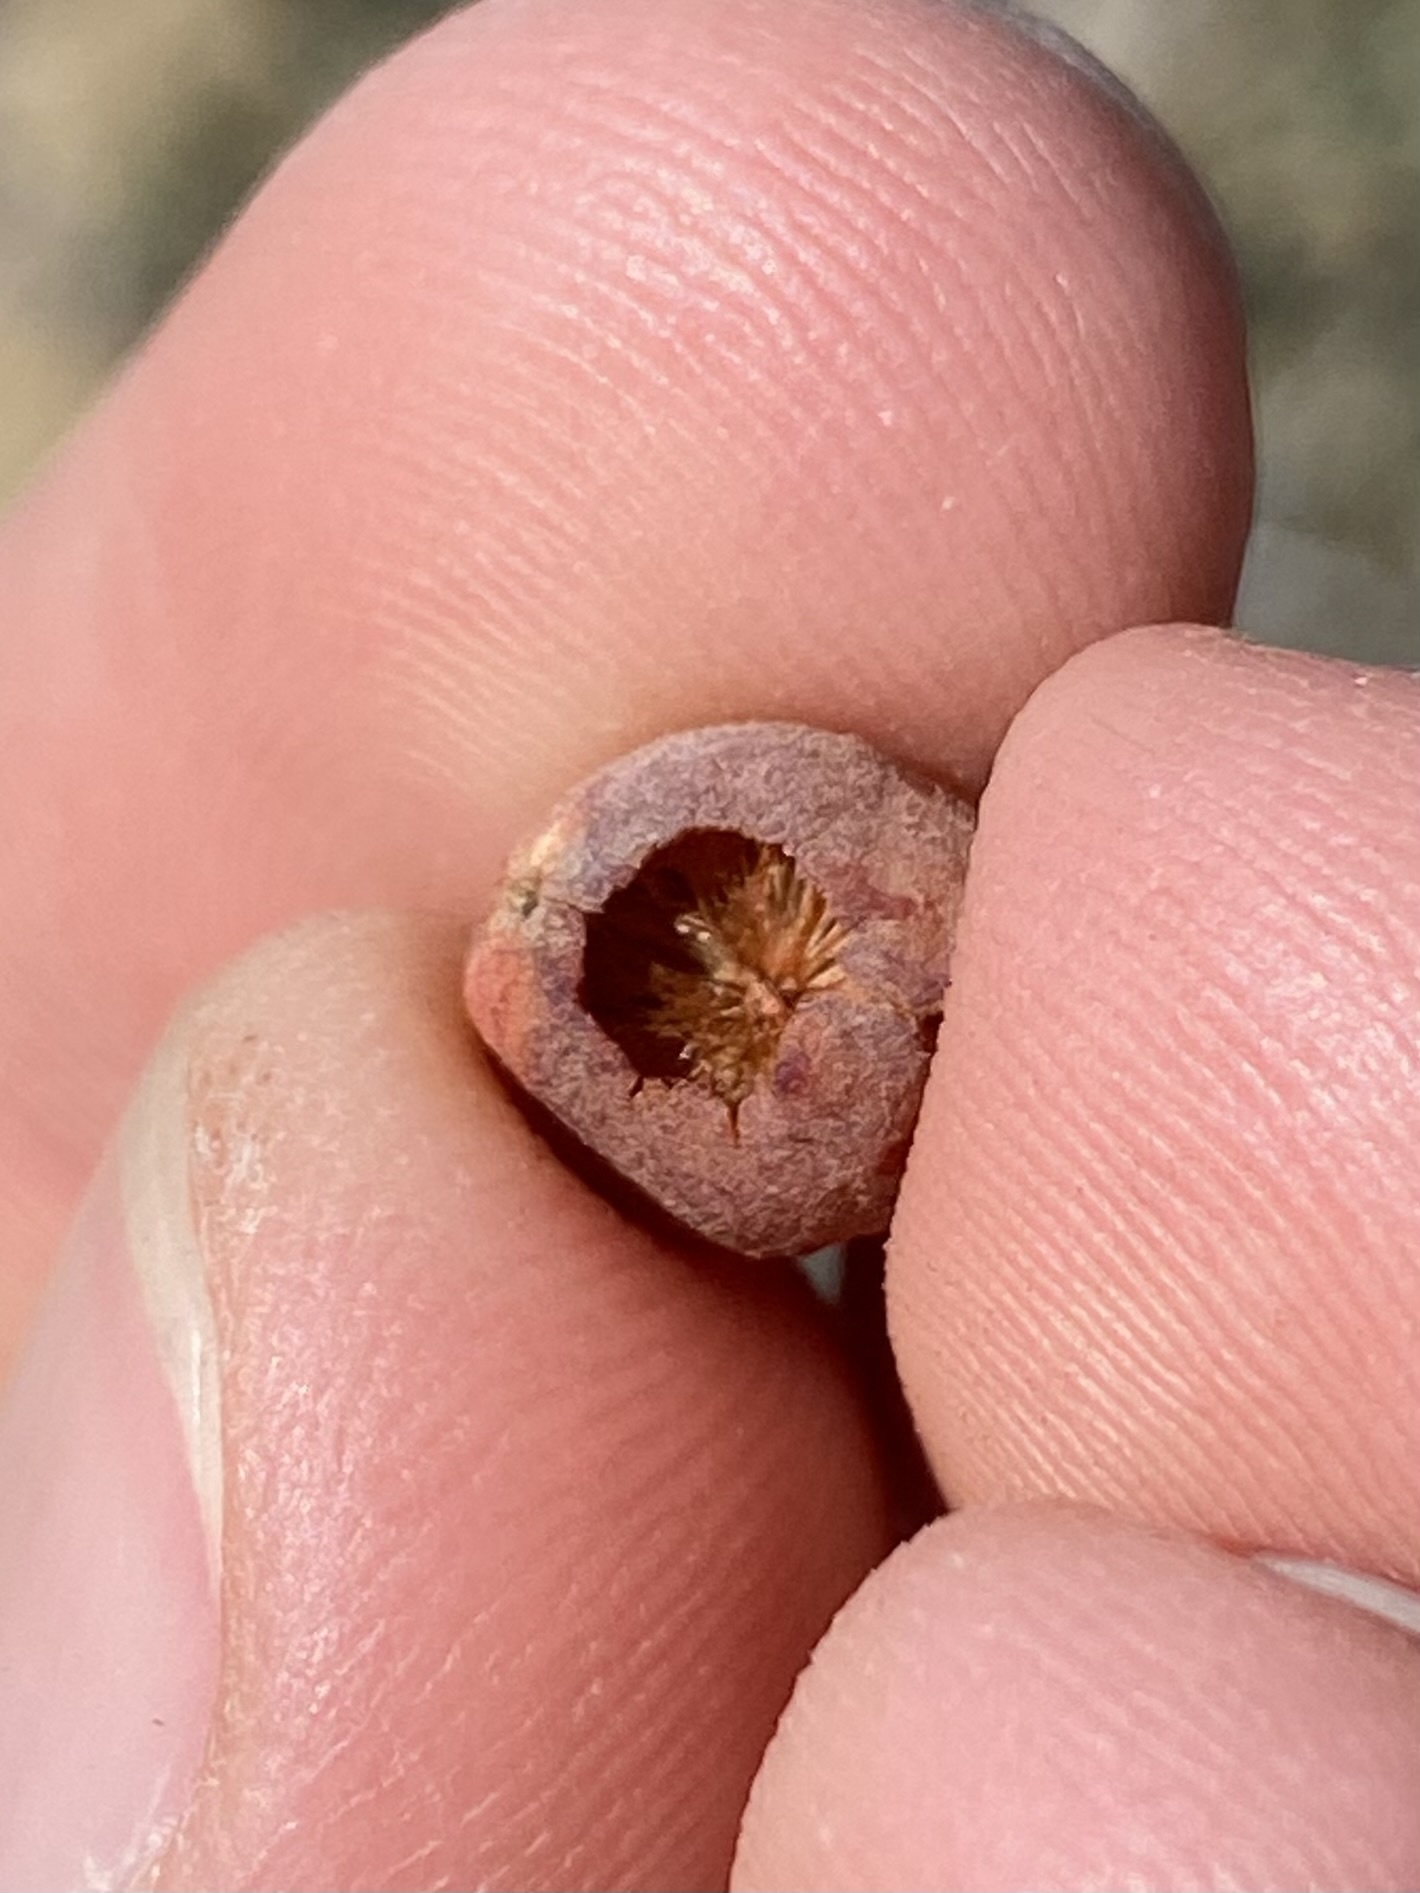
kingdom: Animalia
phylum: Arthropoda
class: Insecta
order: Hymenoptera
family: Cynipidae
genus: Atrusca
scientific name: Atrusca
